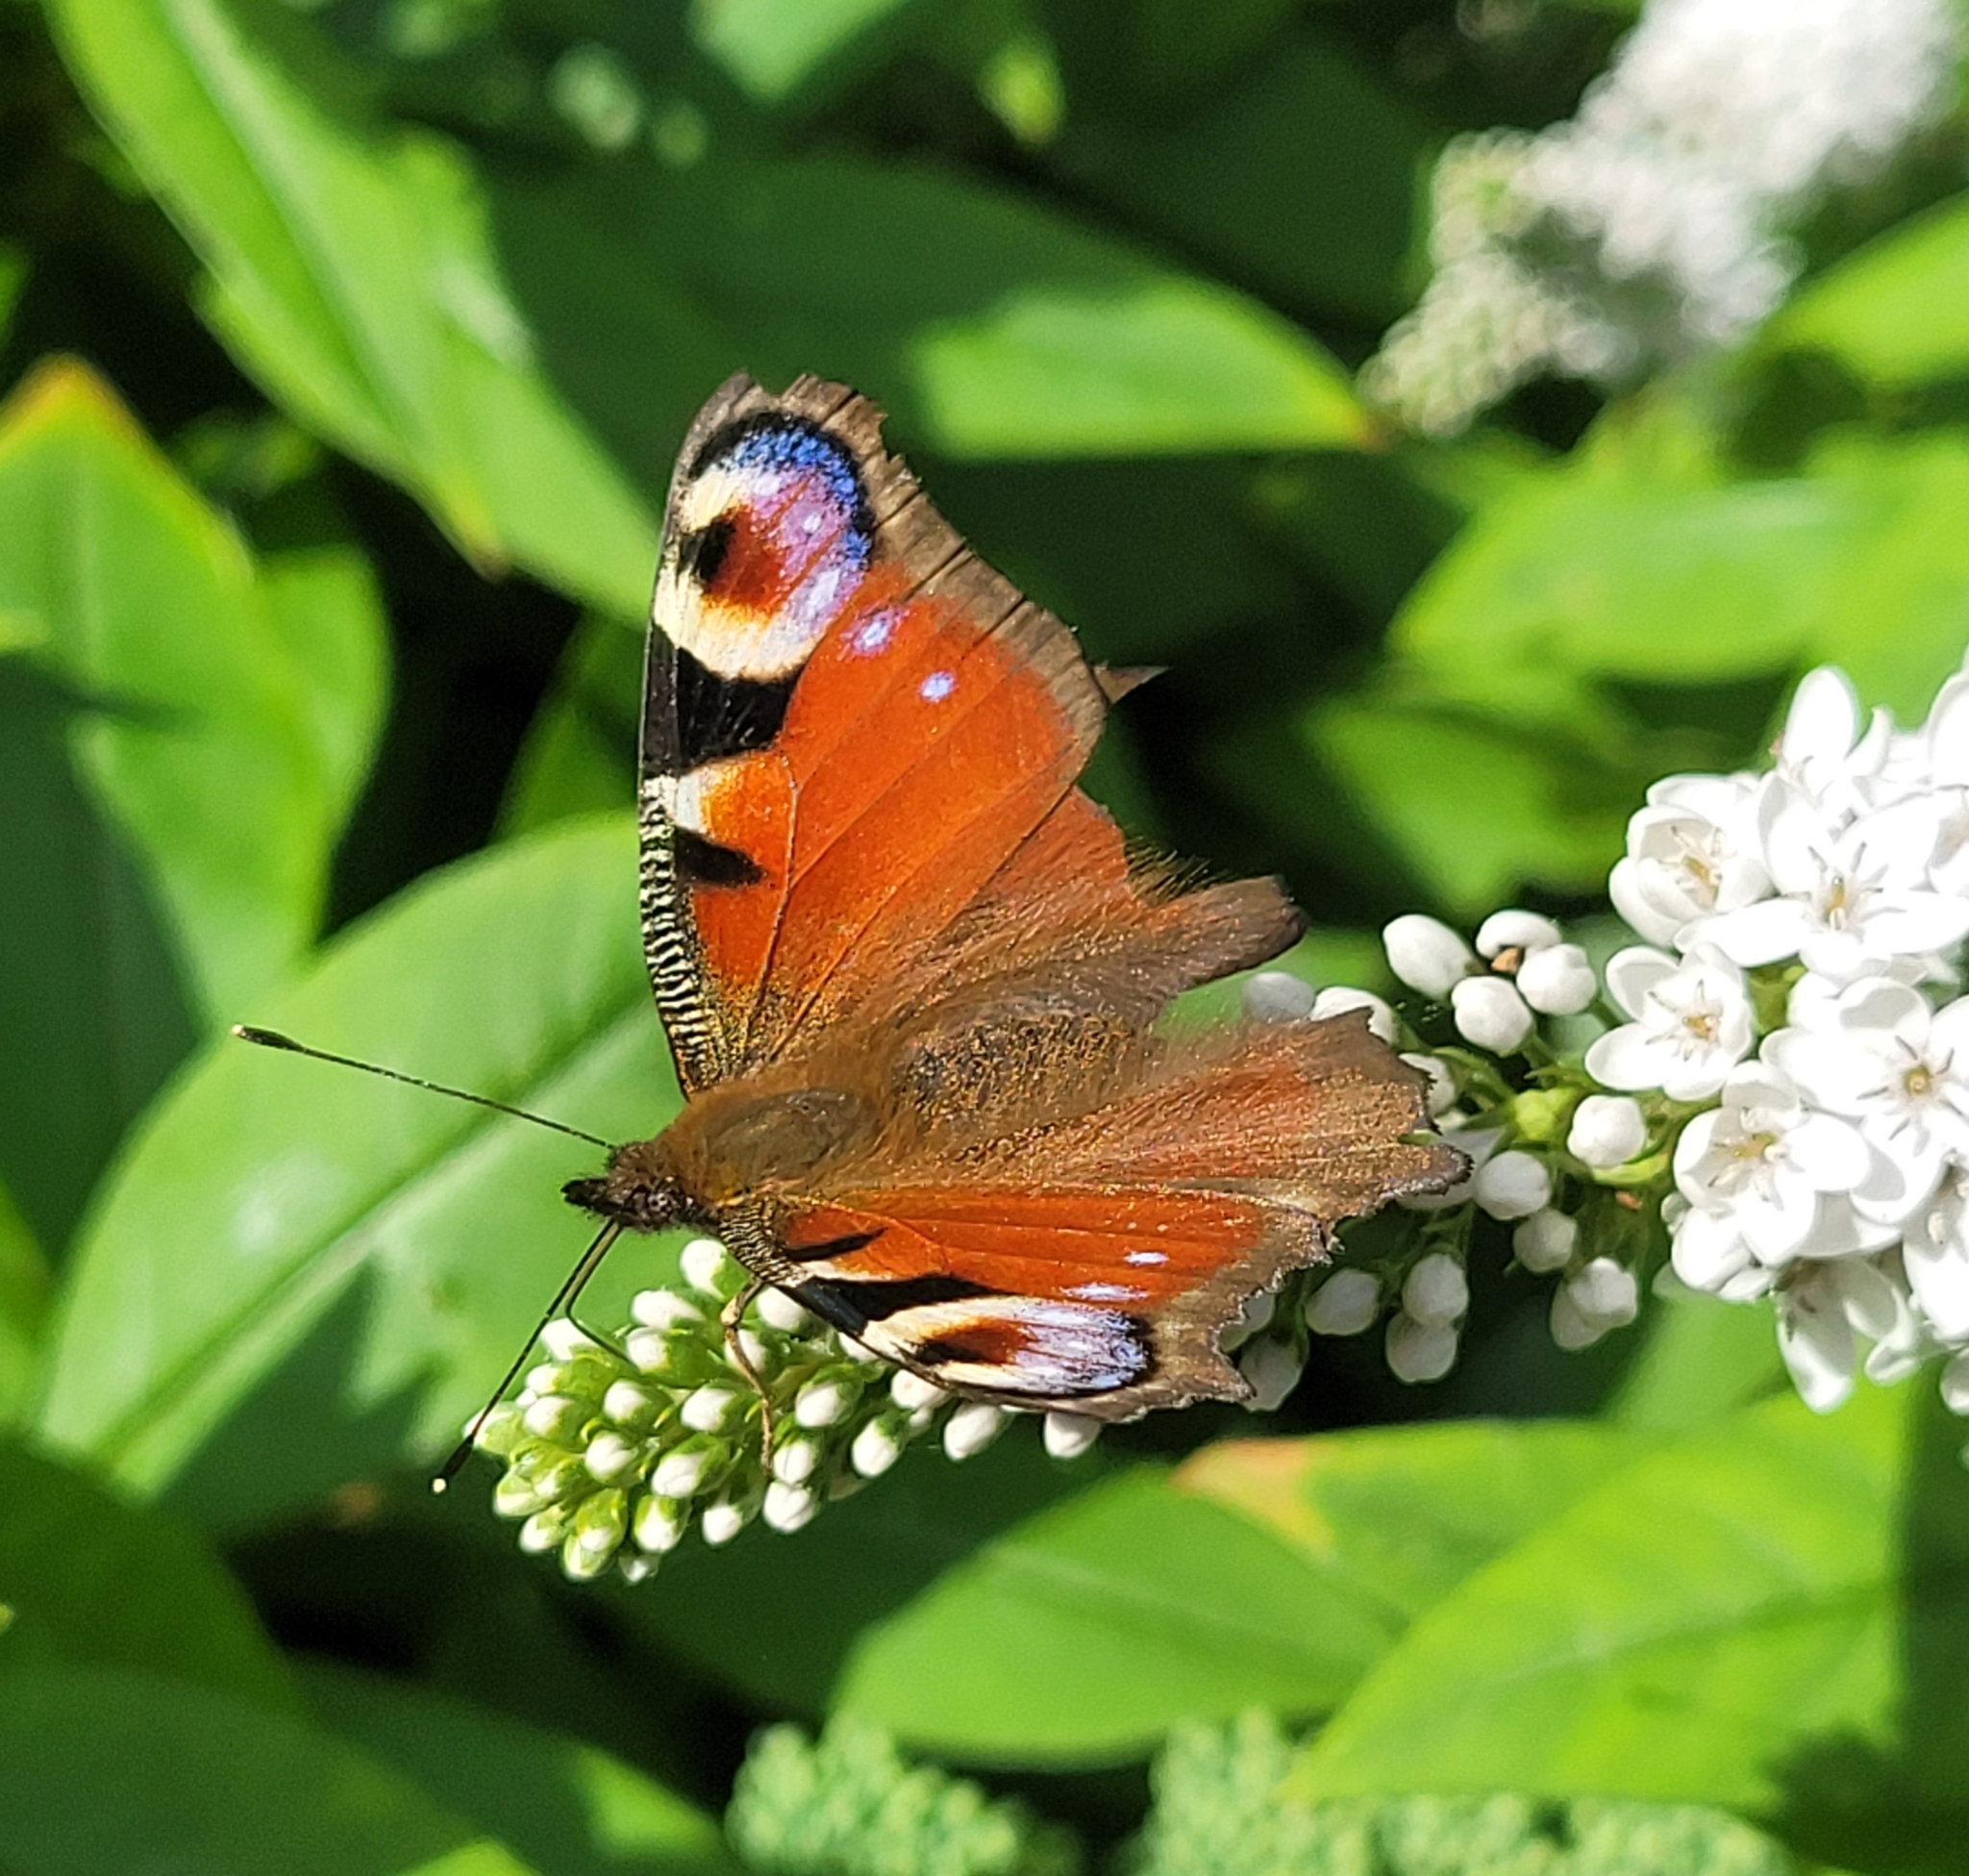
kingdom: Animalia
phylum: Arthropoda
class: Insecta
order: Lepidoptera
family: Nymphalidae
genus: Aglais
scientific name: Aglais io
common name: Peacock
